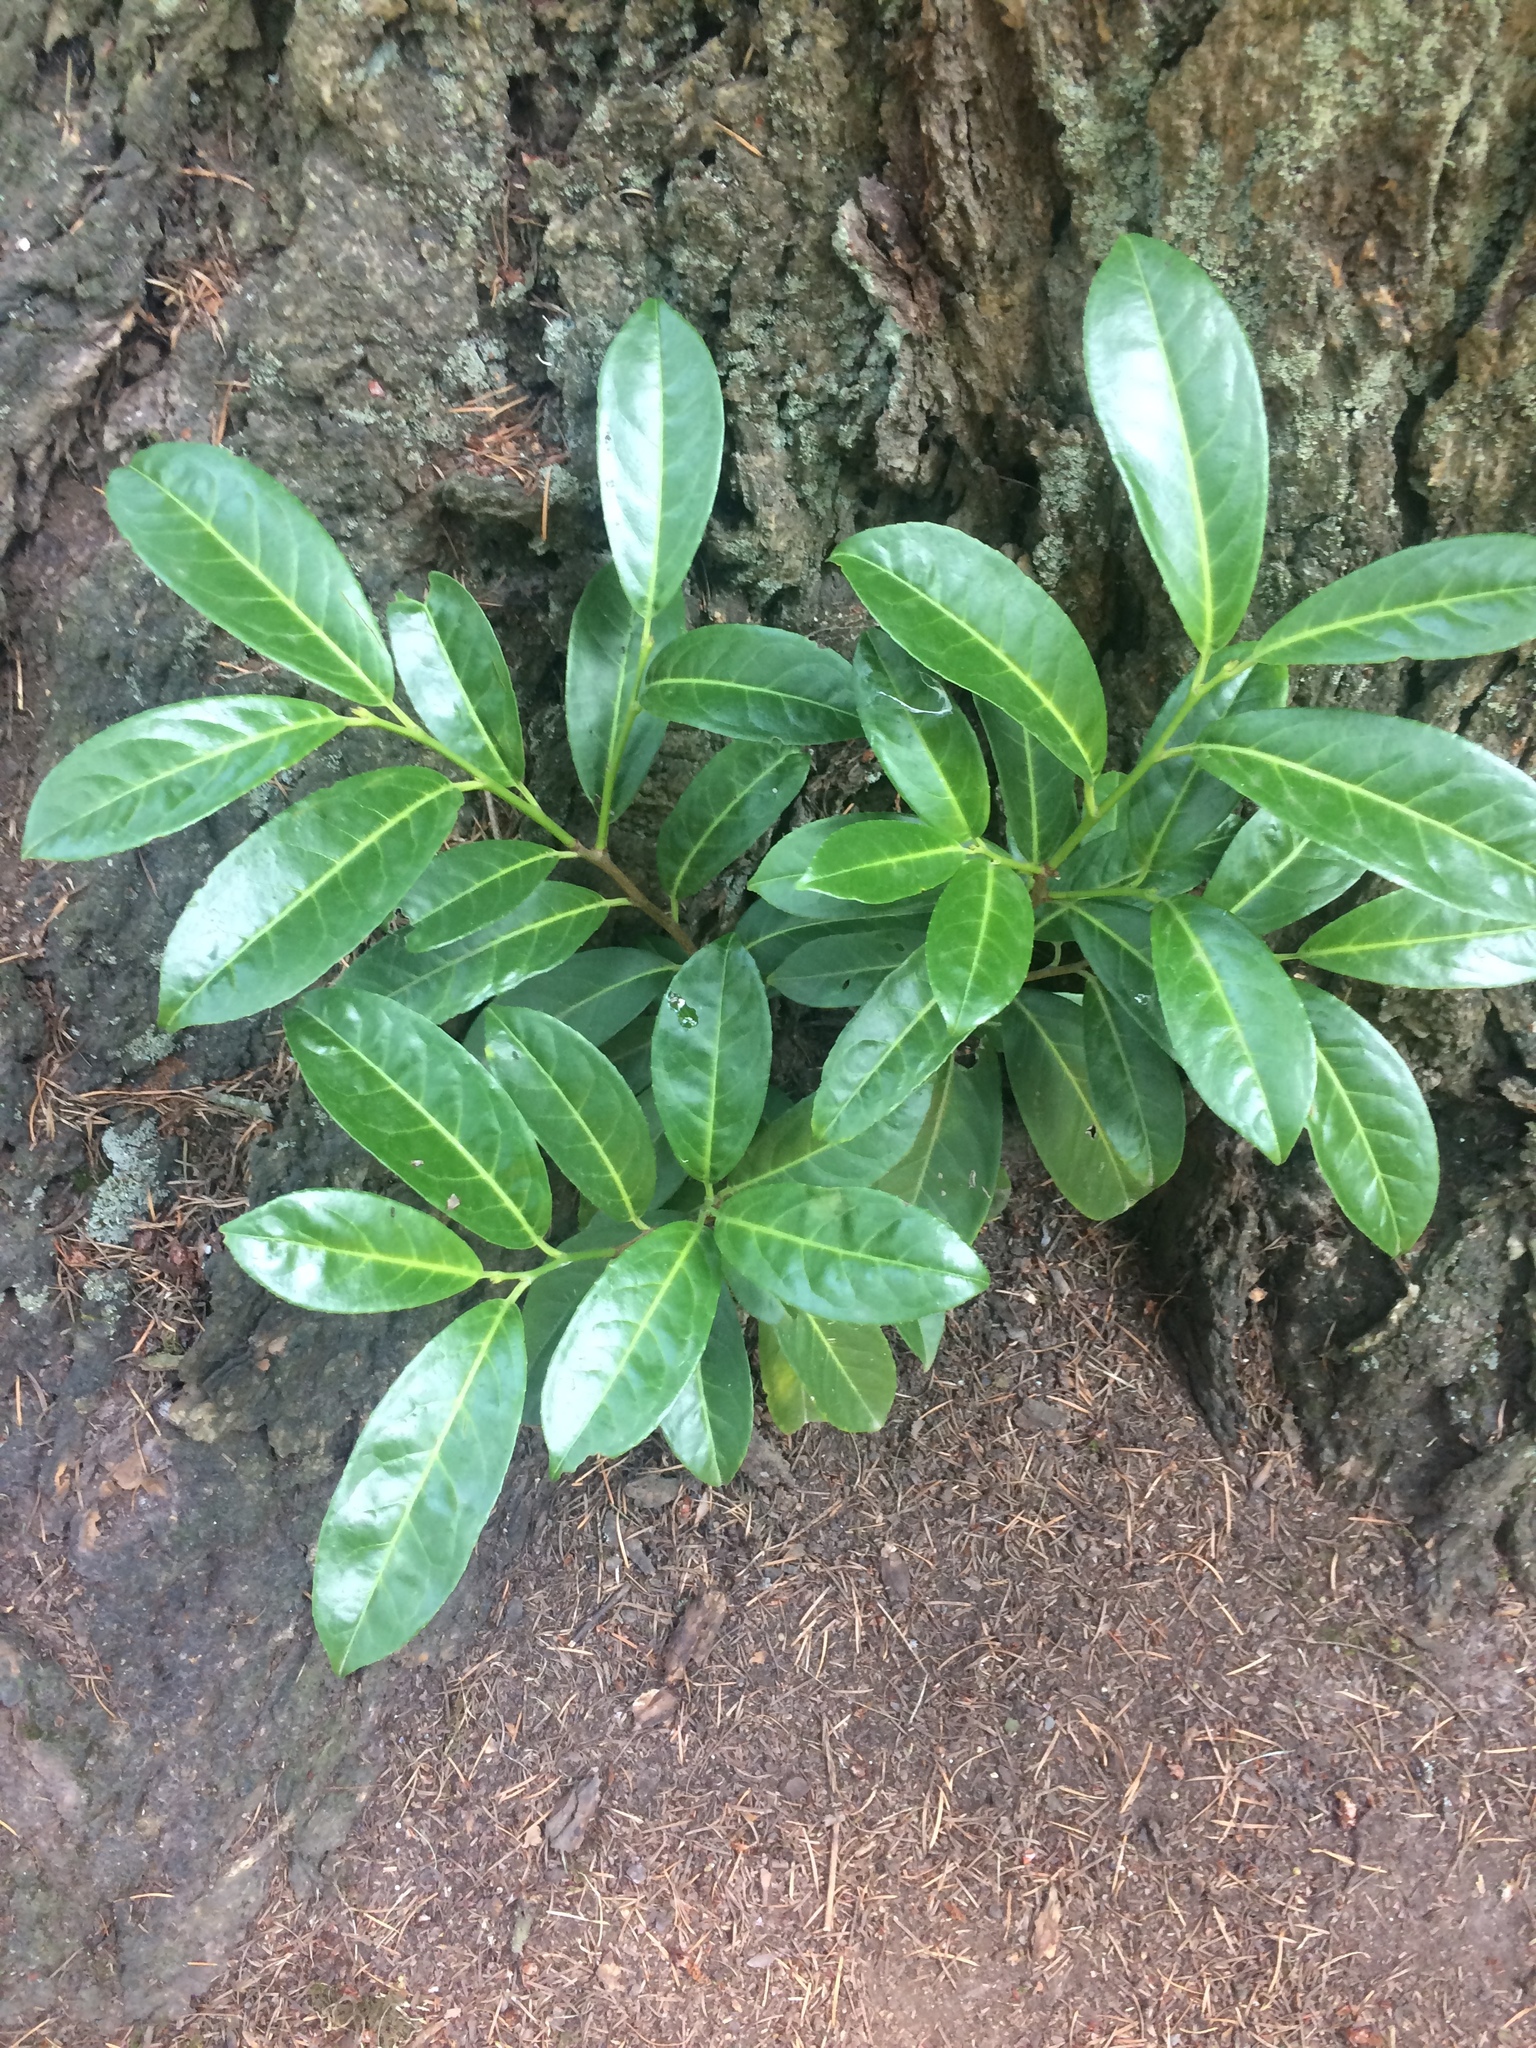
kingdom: Plantae
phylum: Tracheophyta
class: Magnoliopsida
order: Rosales
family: Rosaceae
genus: Prunus
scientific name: Prunus laurocerasus
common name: Cherry laurel
